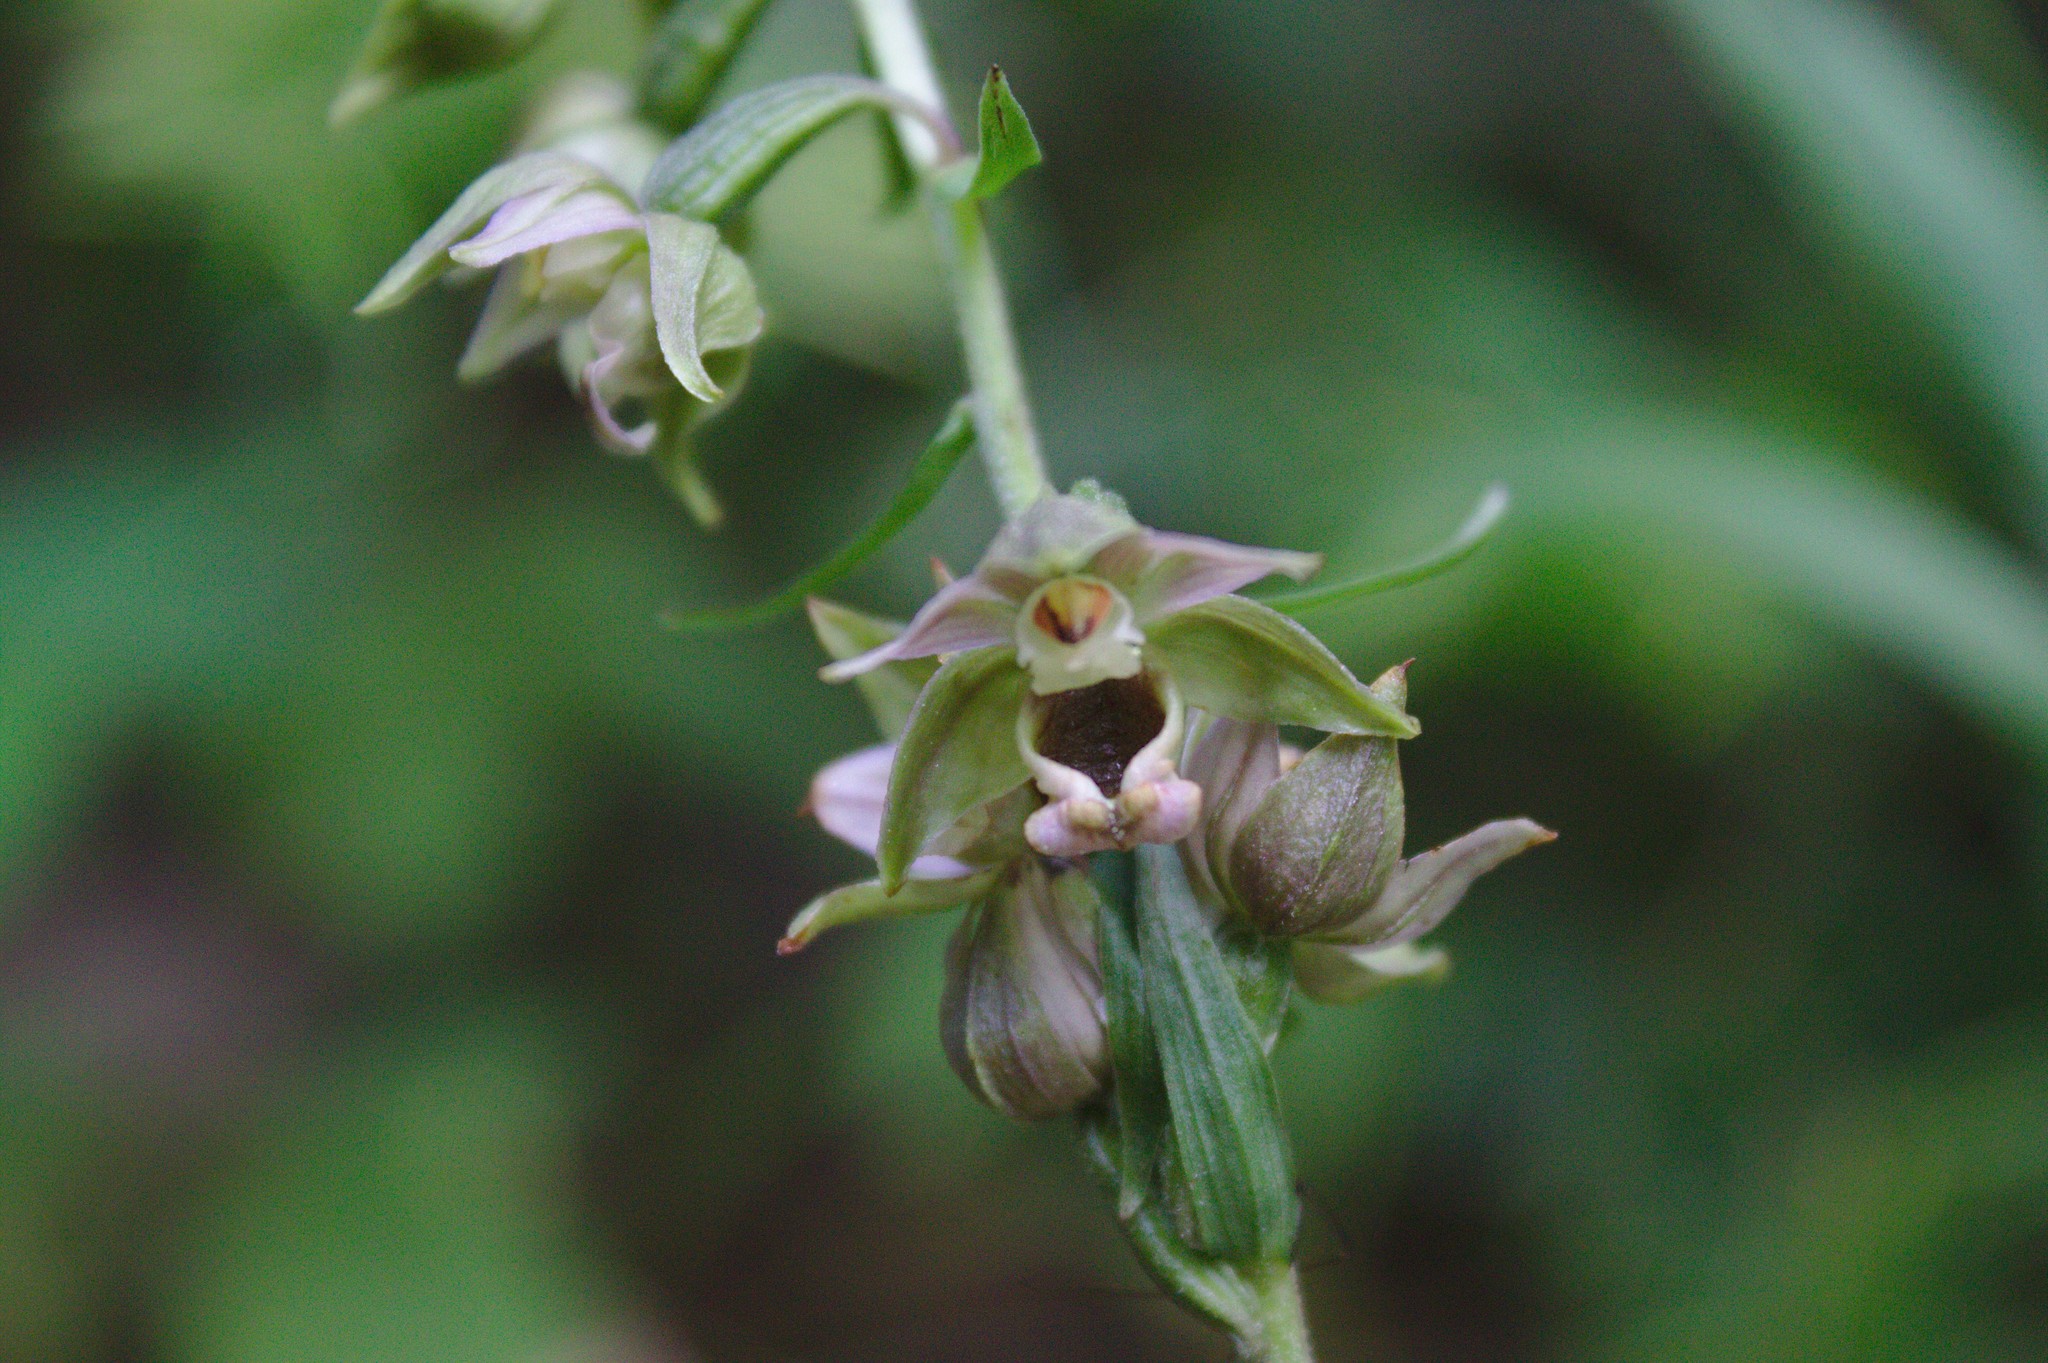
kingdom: Plantae
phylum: Tracheophyta
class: Liliopsida
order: Asparagales
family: Orchidaceae
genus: Epipactis
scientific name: Epipactis helleborine
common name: Broad-leaved helleborine
